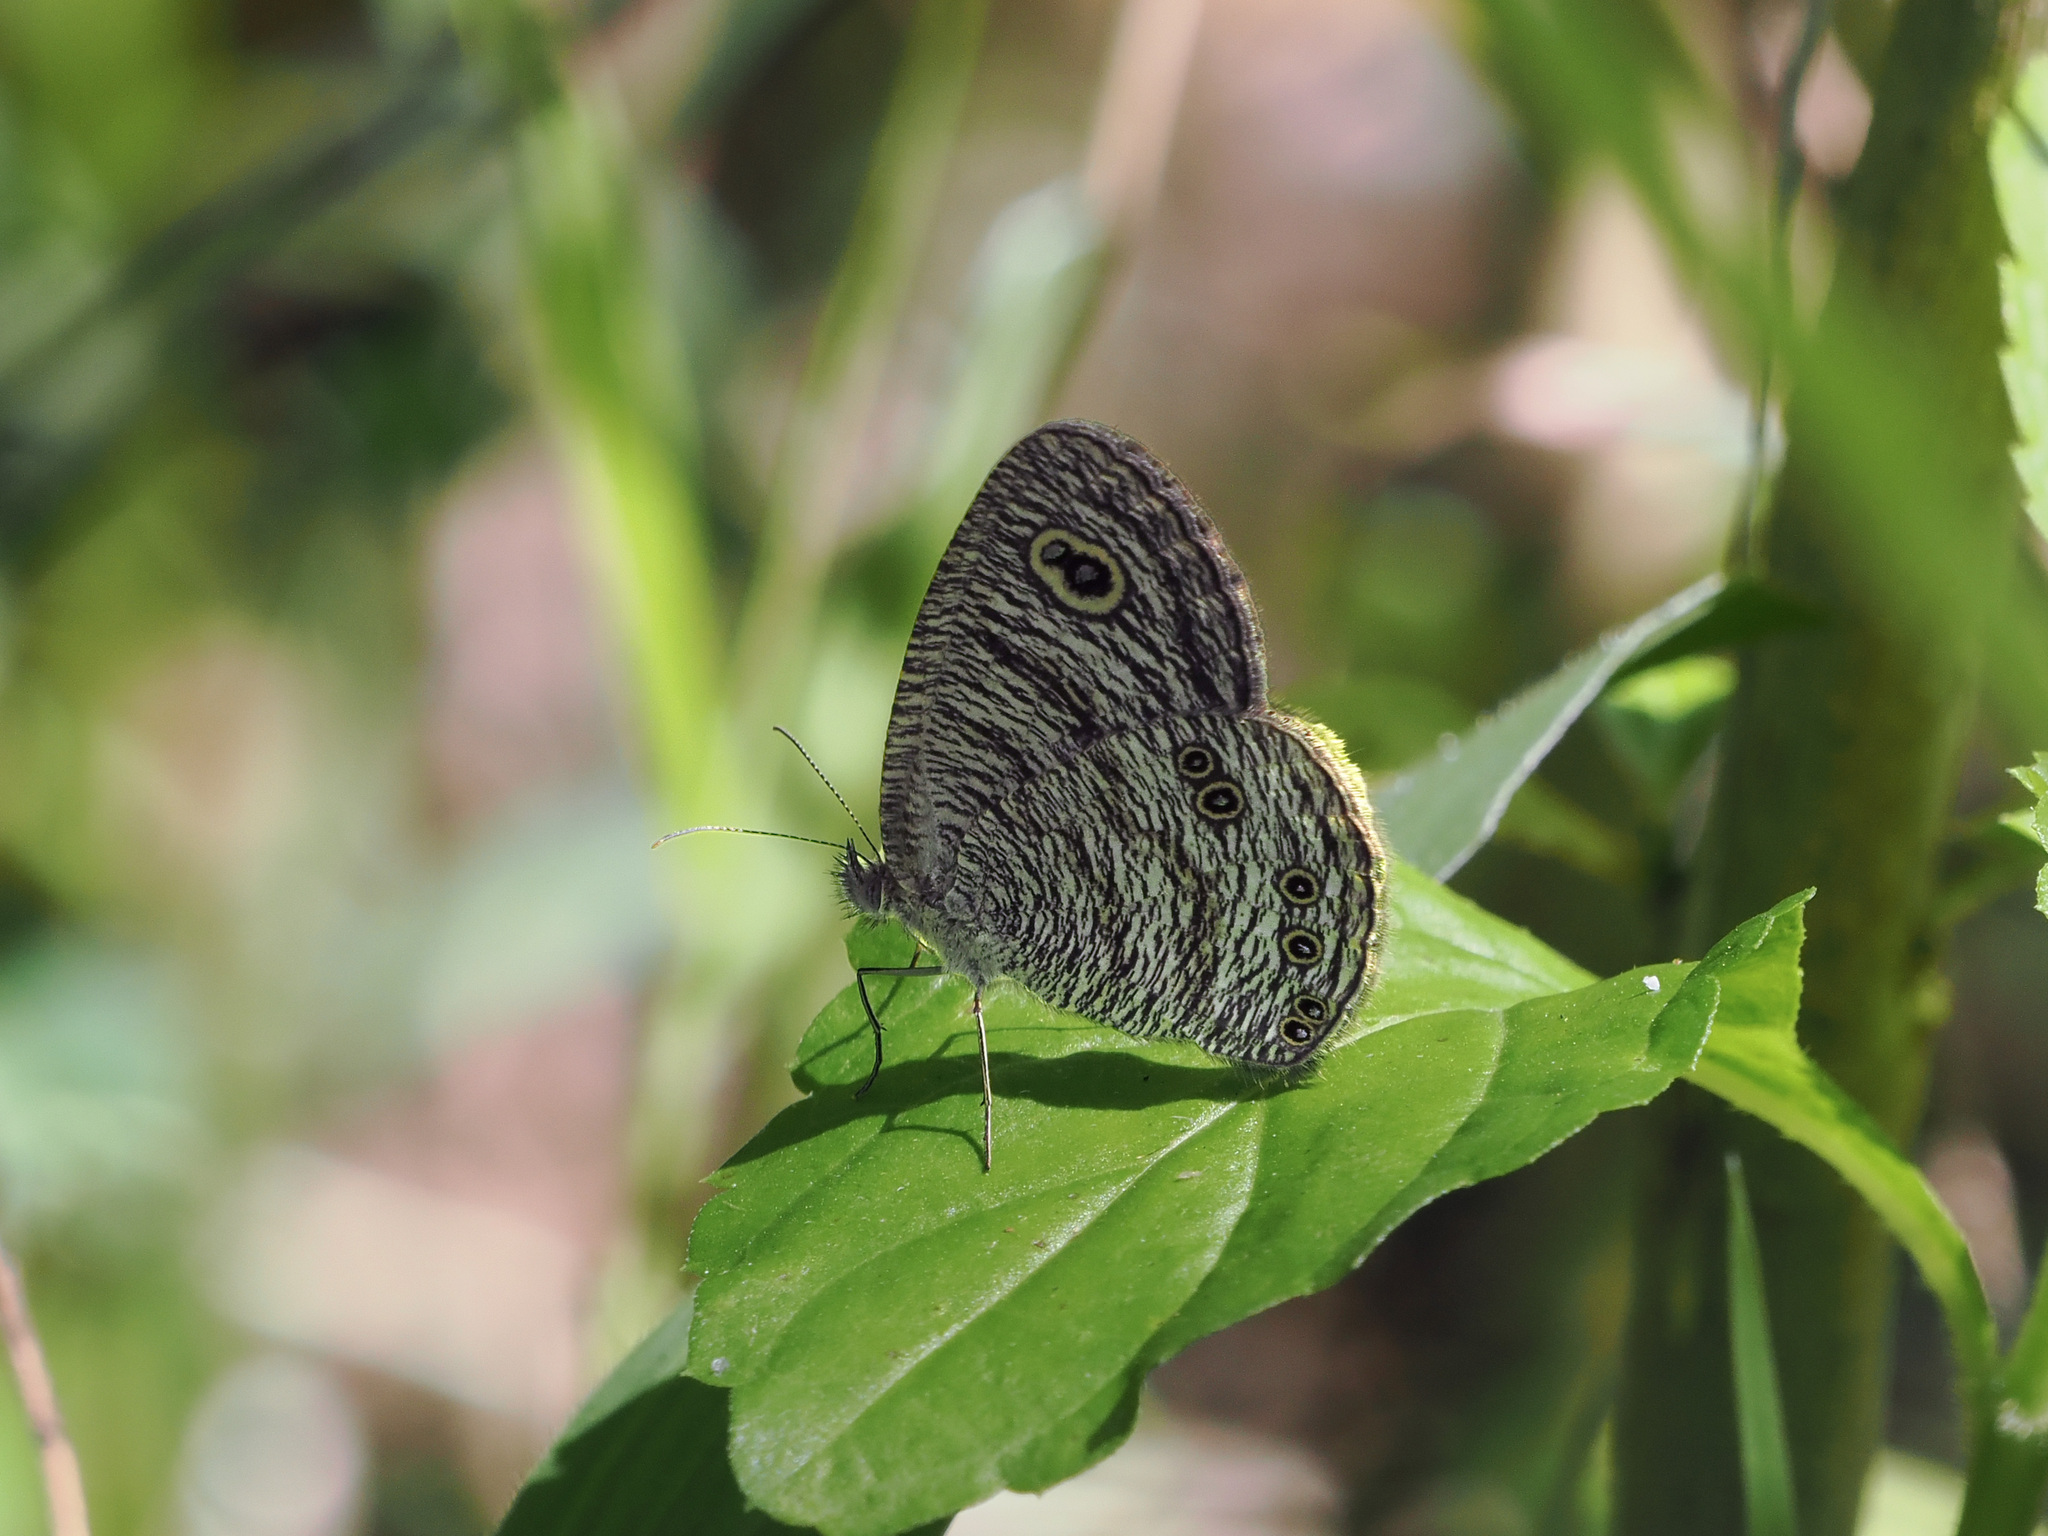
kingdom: Animalia
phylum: Arthropoda
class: Insecta
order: Lepidoptera
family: Nymphalidae
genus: Ypthima
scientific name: Ypthima nigricans
